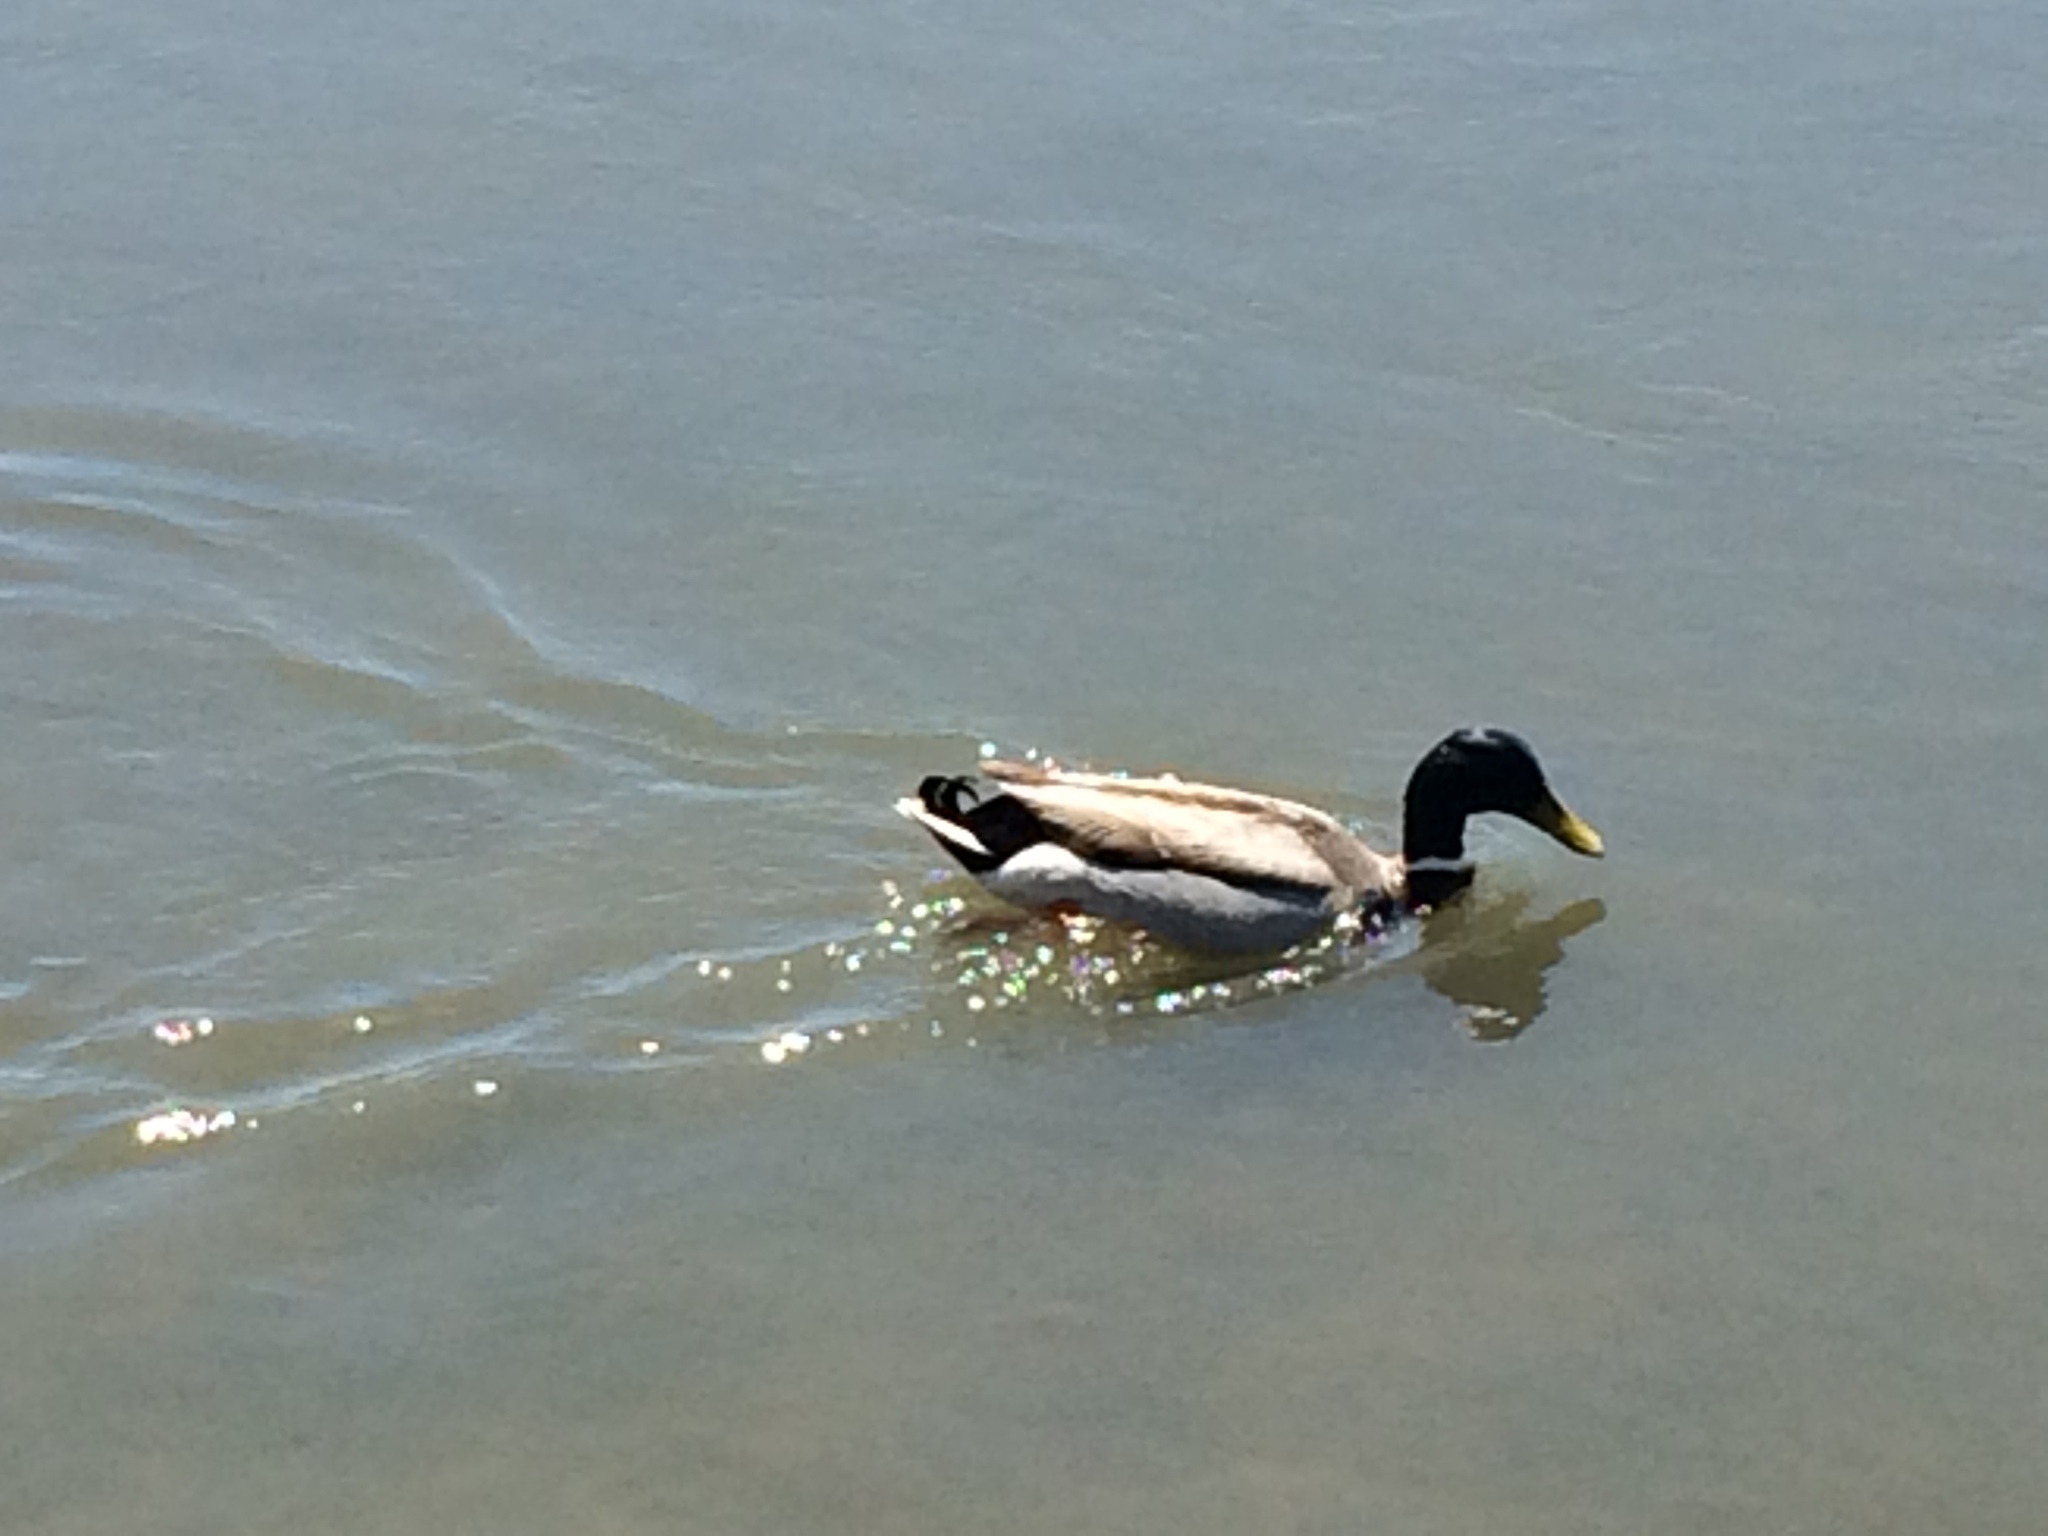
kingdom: Animalia
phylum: Chordata
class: Aves
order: Anseriformes
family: Anatidae
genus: Anas
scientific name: Anas platyrhynchos
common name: Mallard
